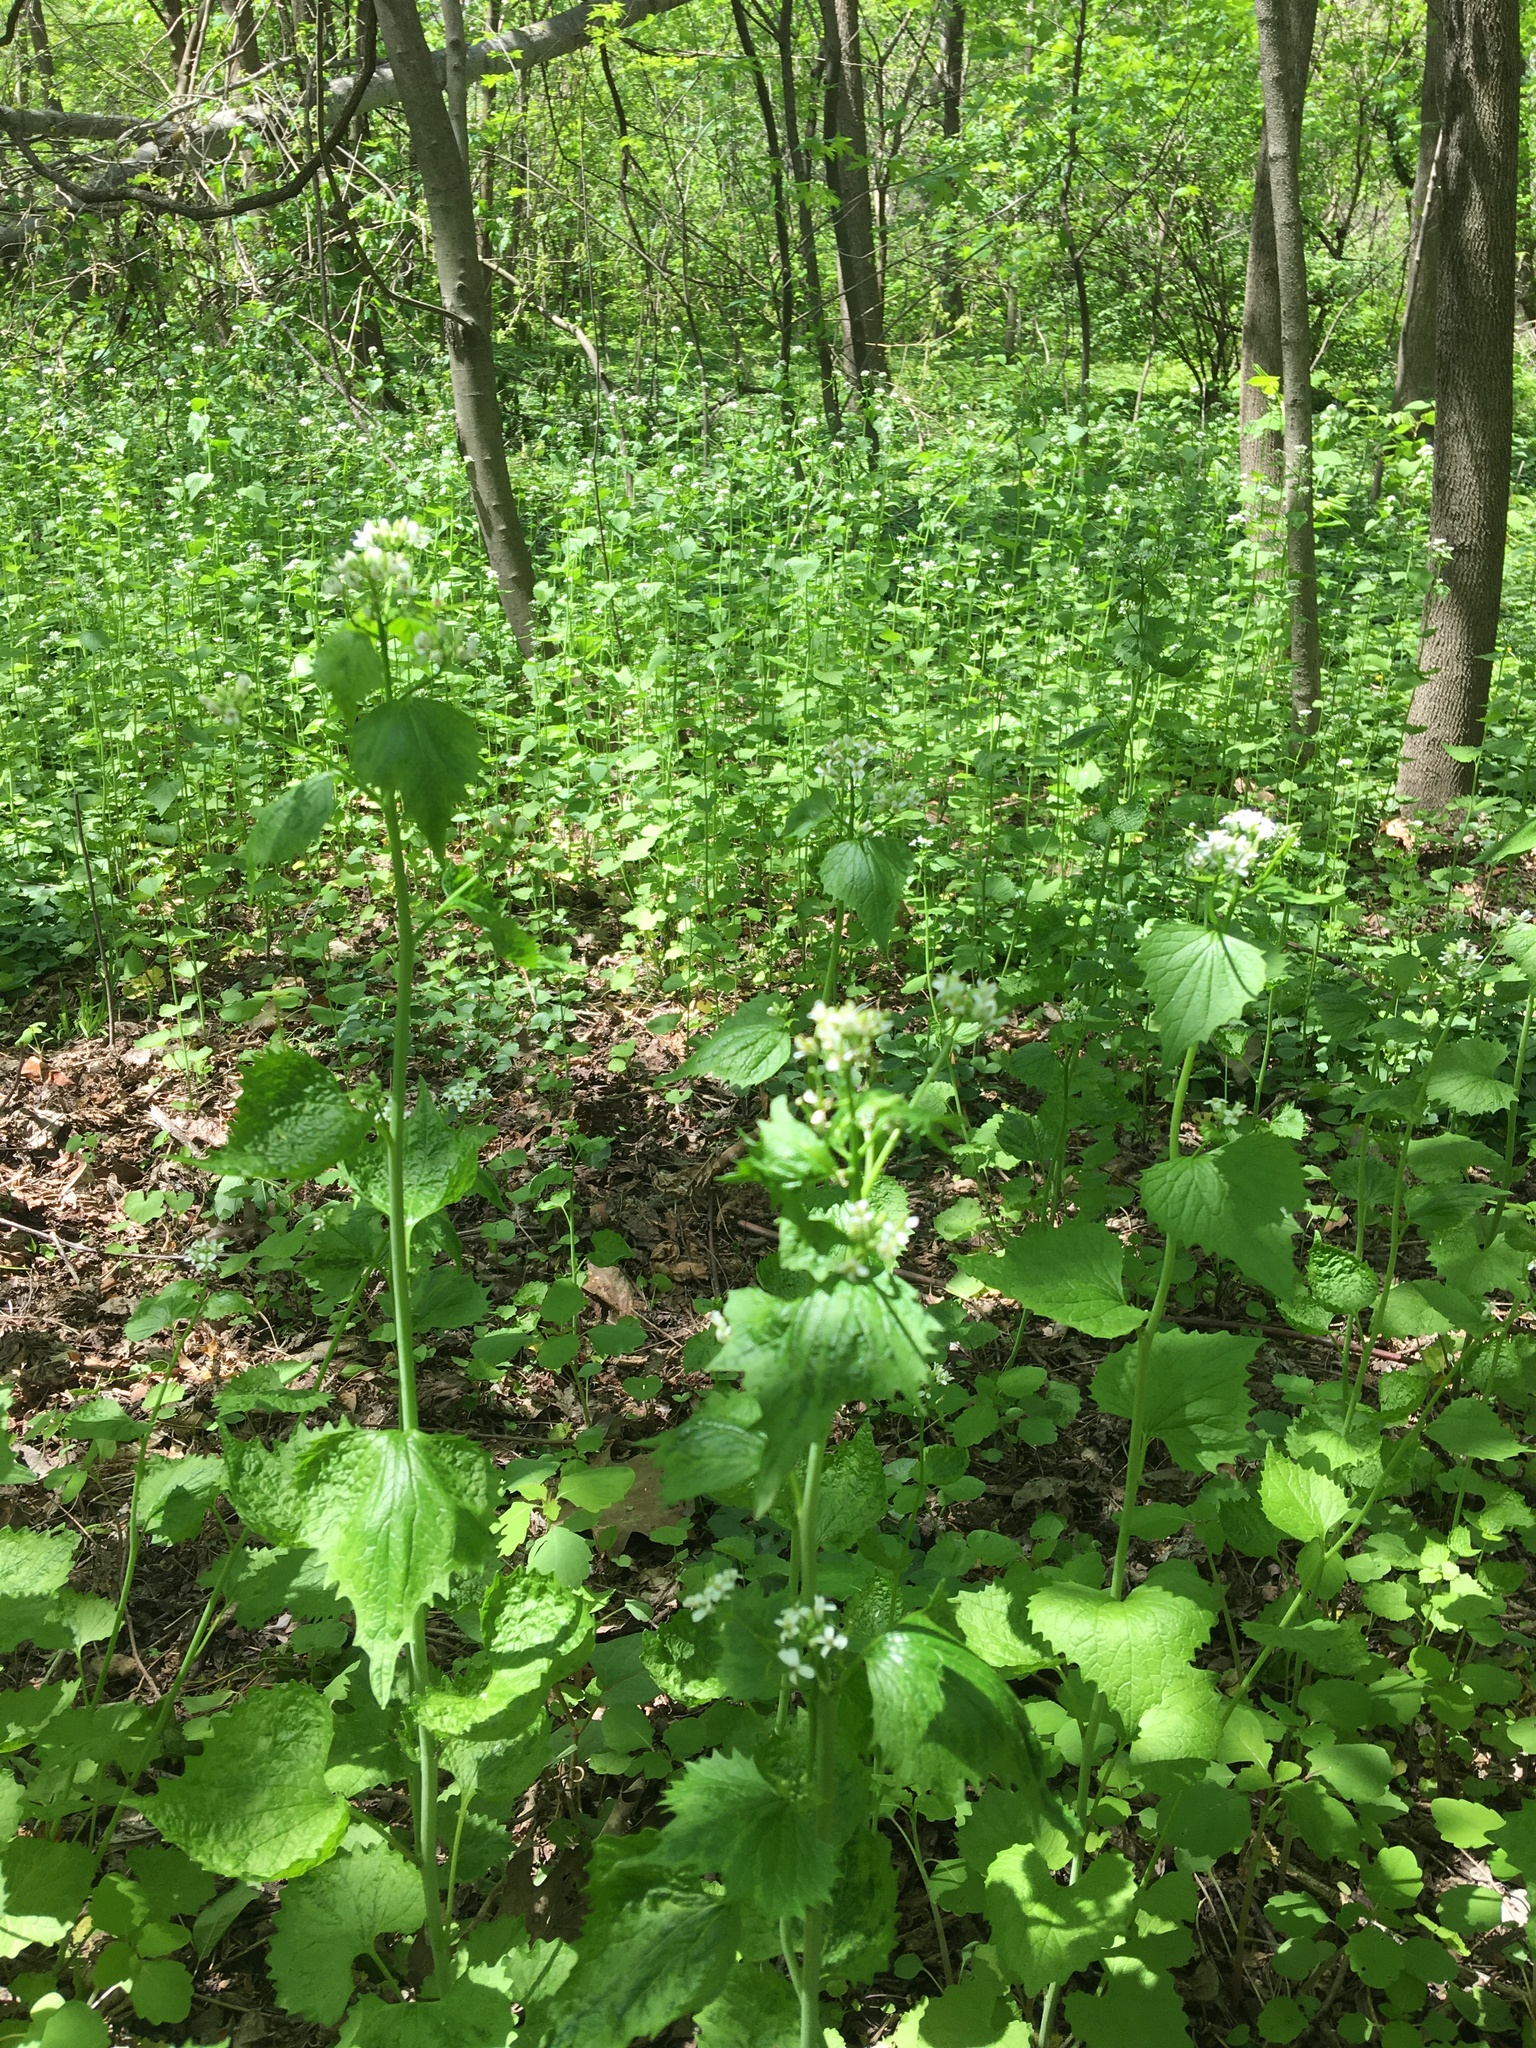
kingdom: Plantae
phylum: Tracheophyta
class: Magnoliopsida
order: Brassicales
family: Brassicaceae
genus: Alliaria
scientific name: Alliaria petiolata
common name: Garlic mustard
